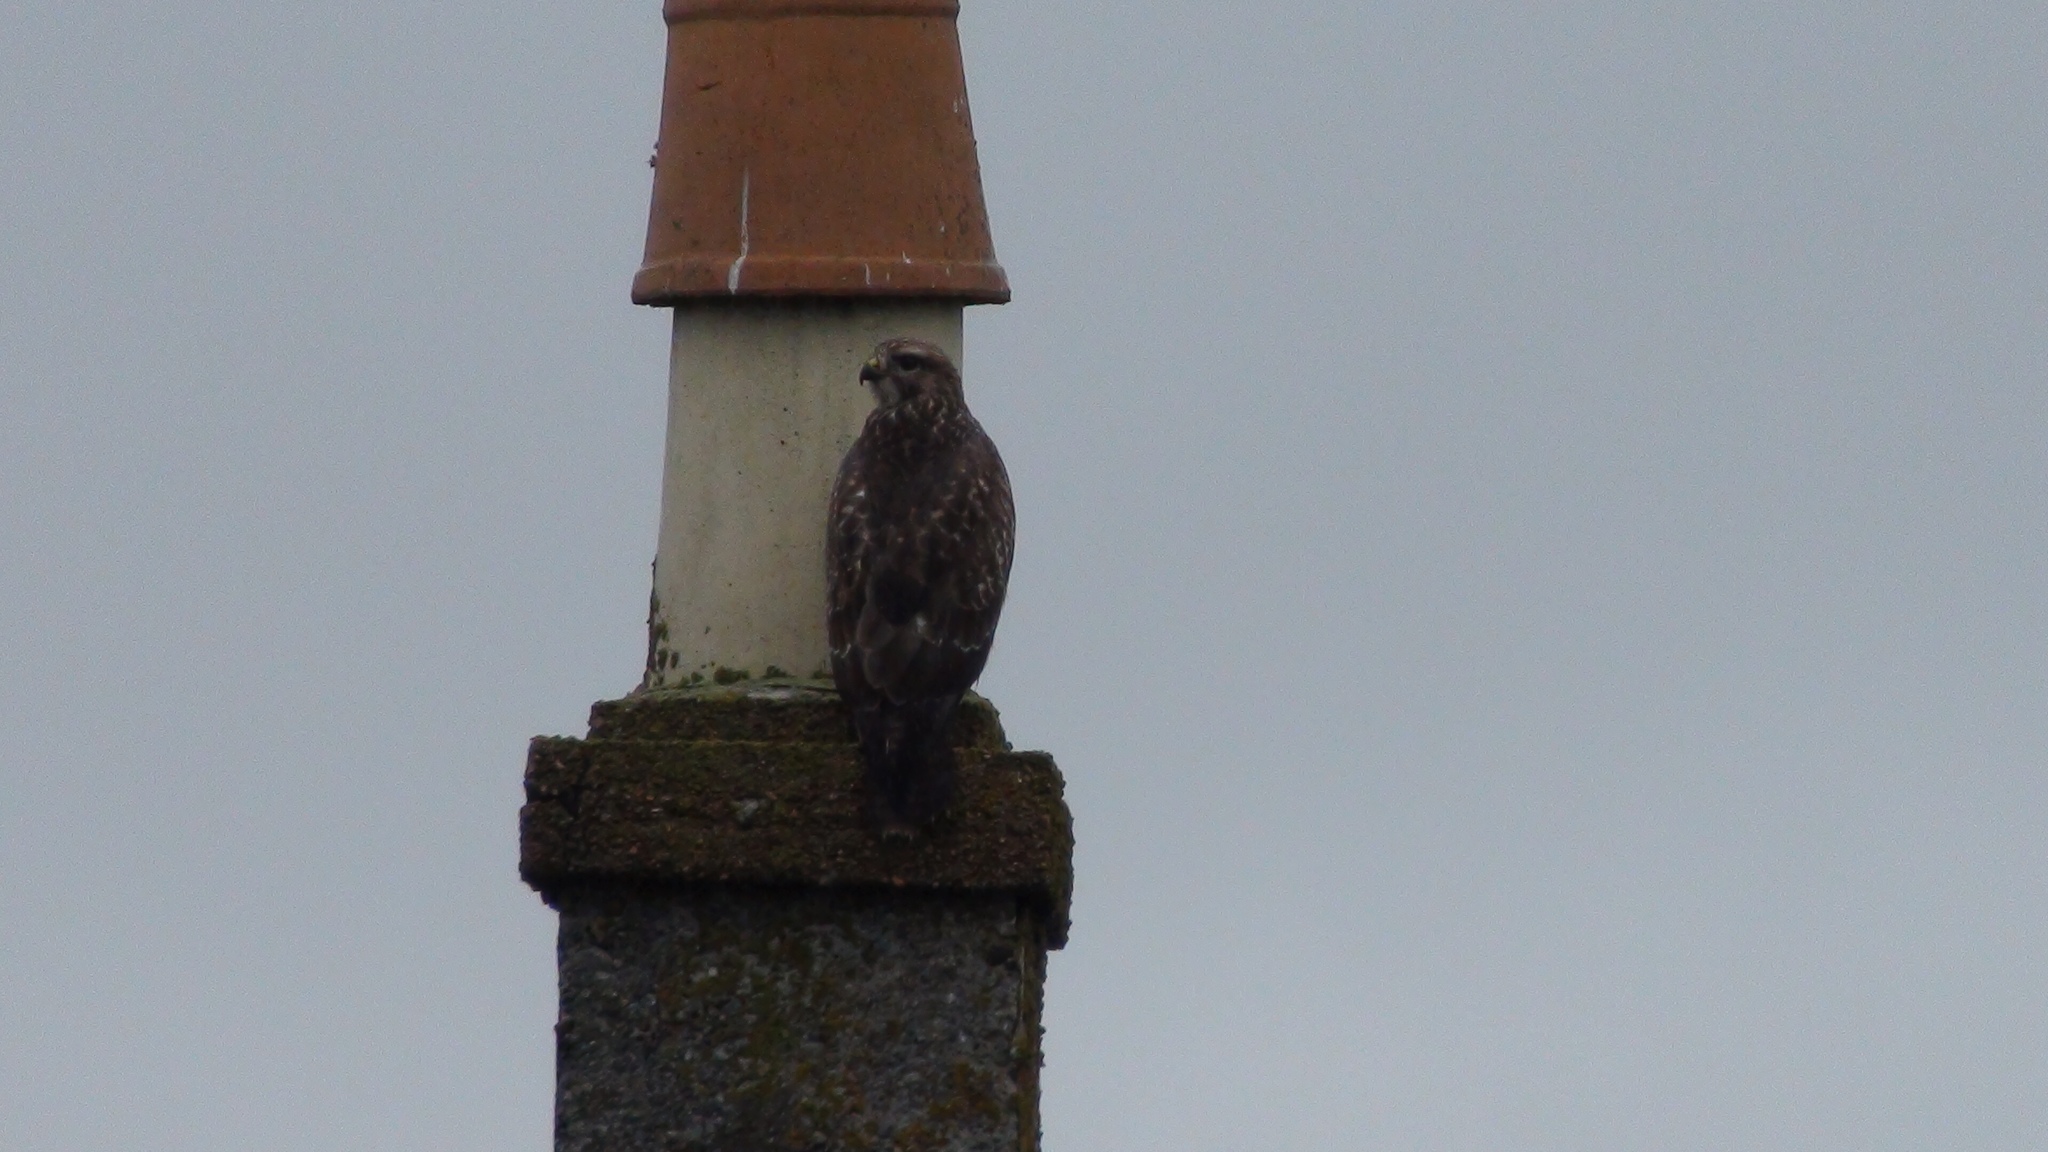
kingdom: Animalia
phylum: Chordata
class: Aves
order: Accipitriformes
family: Accipitridae
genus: Buteo
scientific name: Buteo buteo
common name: Common buzzard
